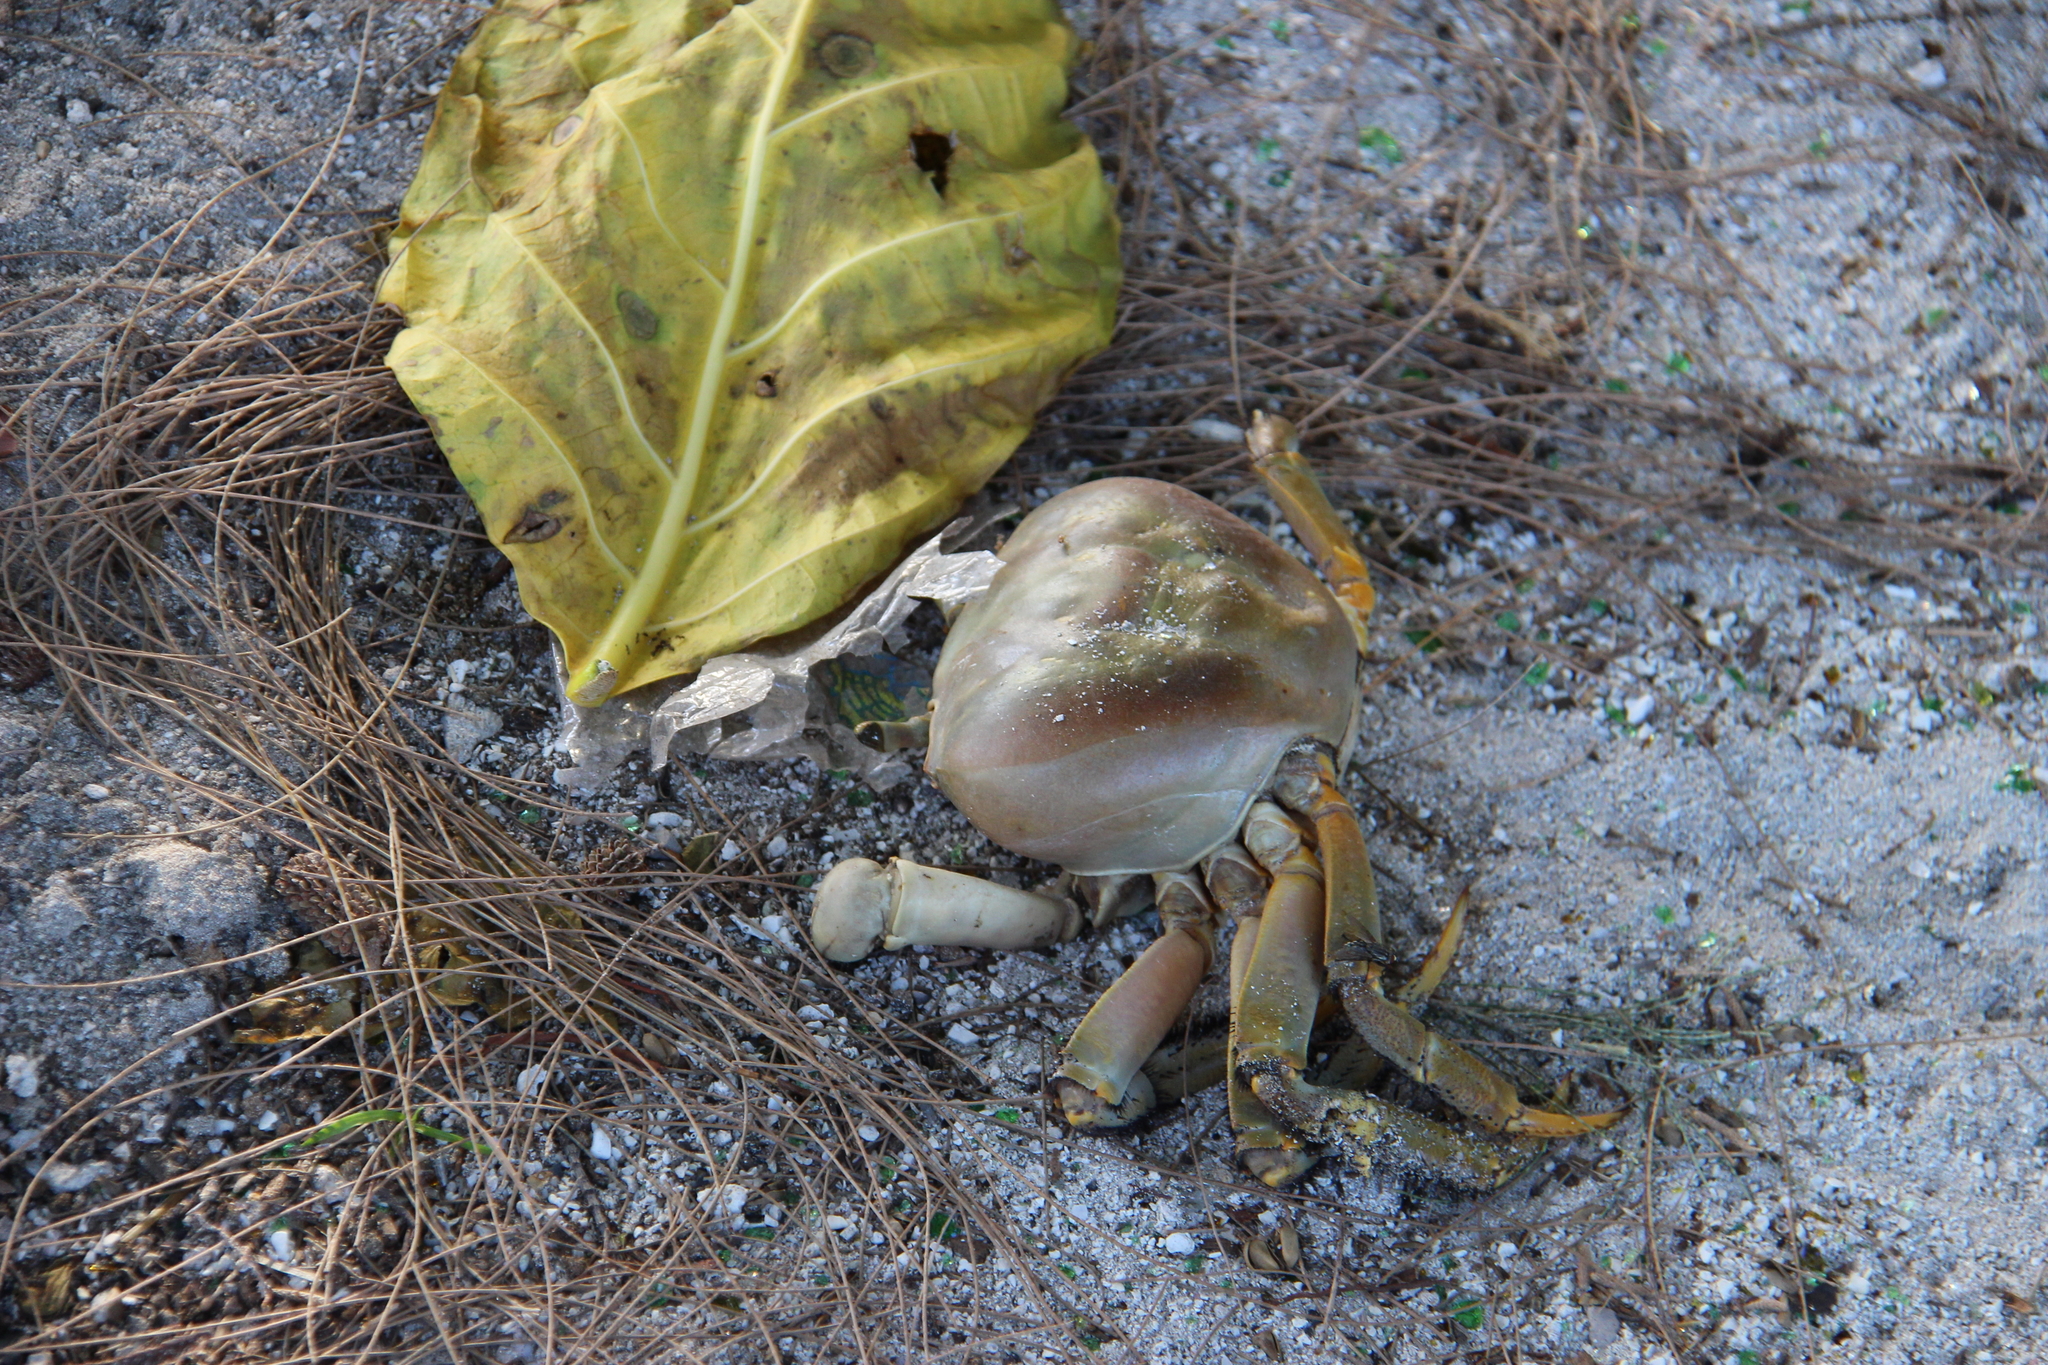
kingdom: Animalia
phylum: Arthropoda
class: Malacostraca
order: Decapoda
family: Gecarcinidae
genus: Cardisoma
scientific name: Cardisoma carnifex
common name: Brown land crab
